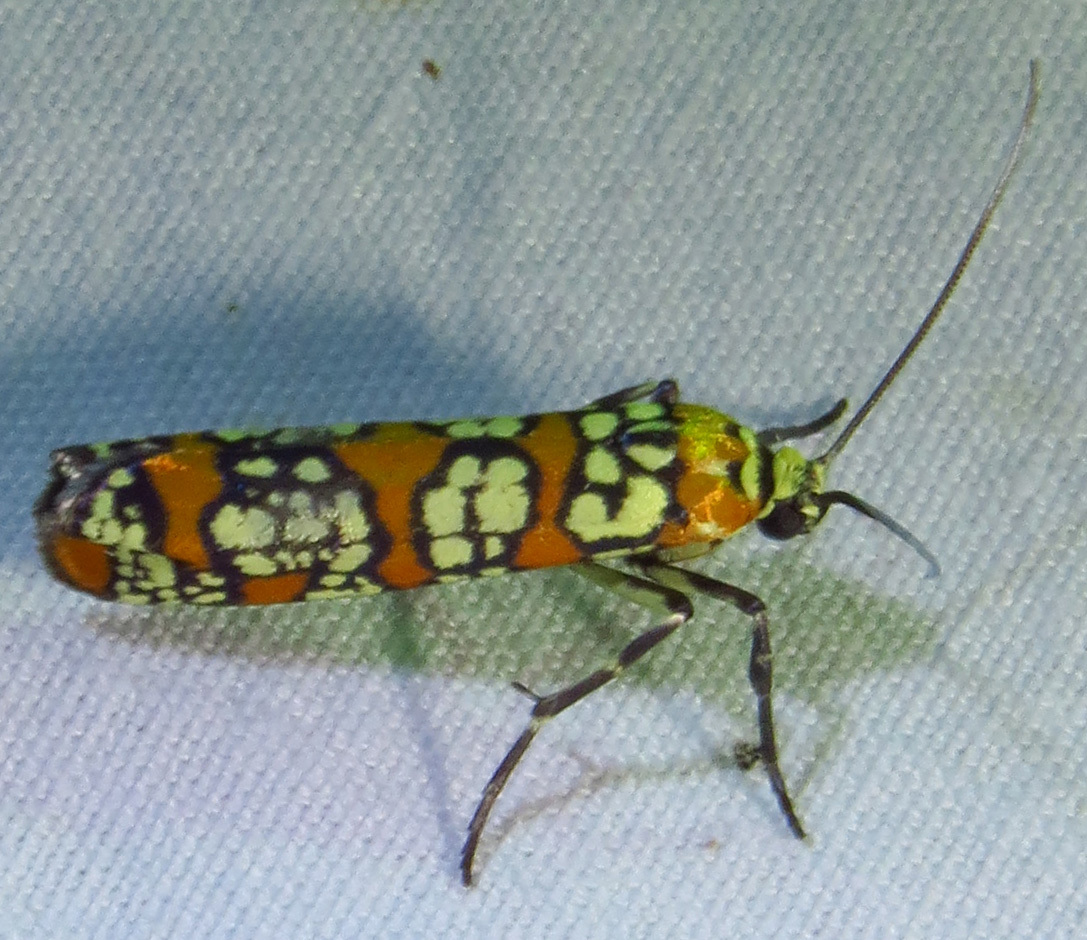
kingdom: Animalia
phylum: Arthropoda
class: Insecta
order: Lepidoptera
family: Attevidae
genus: Atteva
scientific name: Atteva punctella
